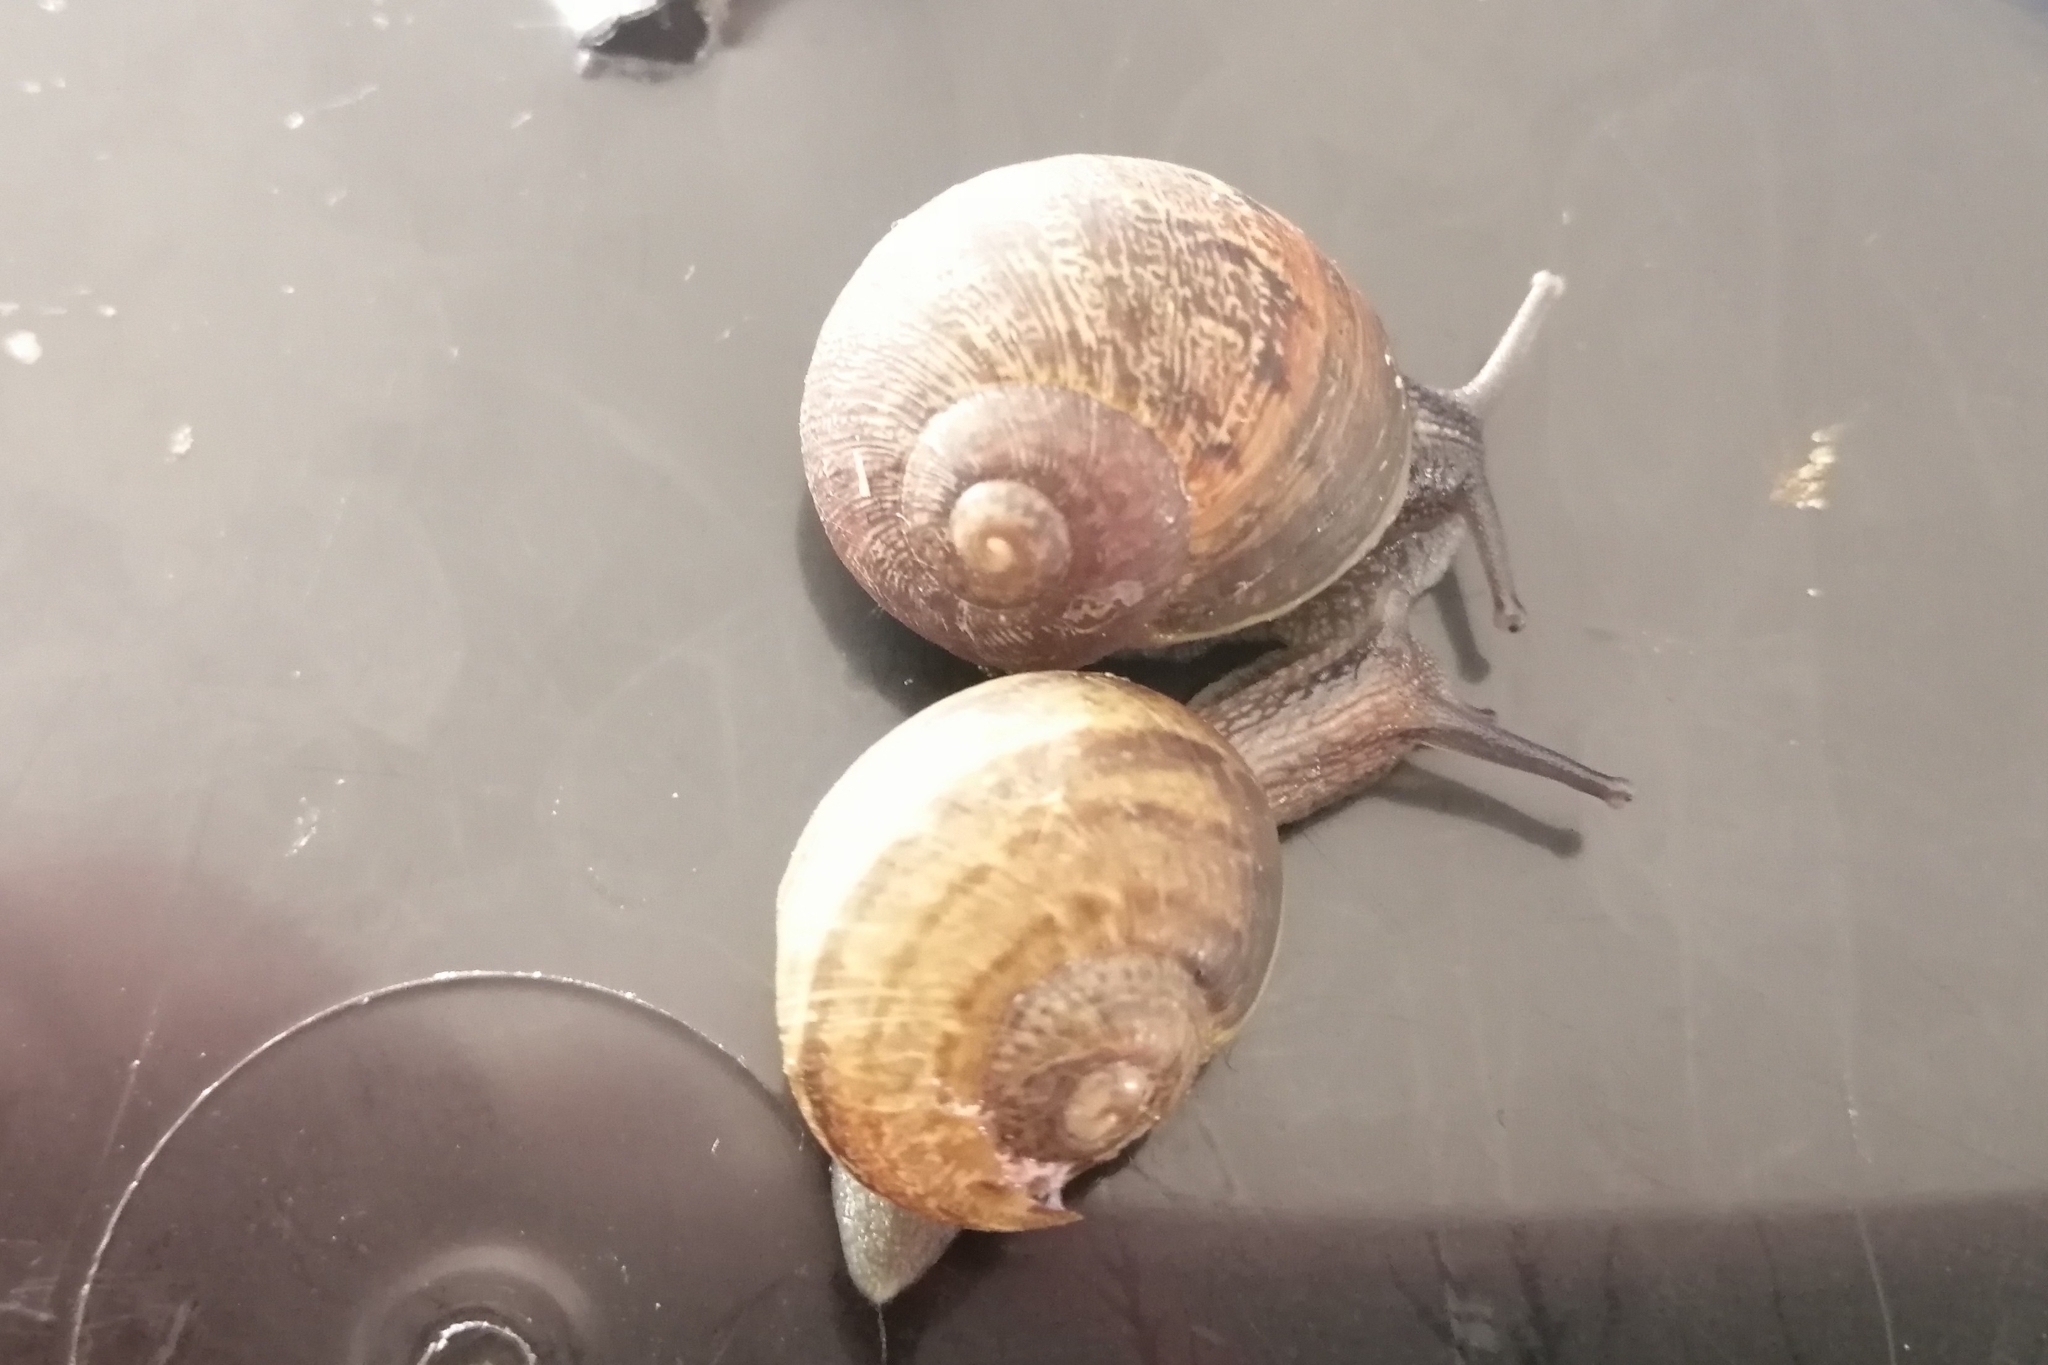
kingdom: Animalia
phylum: Mollusca
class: Gastropoda
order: Stylommatophora
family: Helicidae
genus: Cornu
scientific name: Cornu aspersum
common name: Brown garden snail
